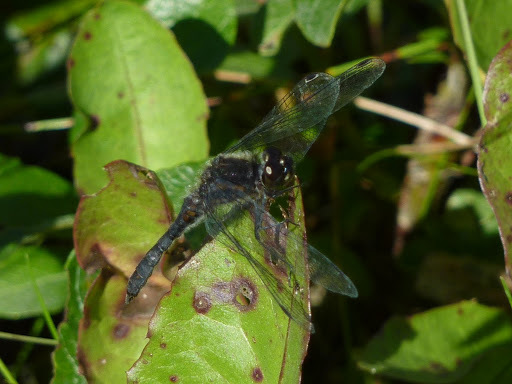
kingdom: Animalia
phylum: Arthropoda
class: Insecta
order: Odonata
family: Libellulidae
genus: Sympetrum
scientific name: Sympetrum danae
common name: Black darter
